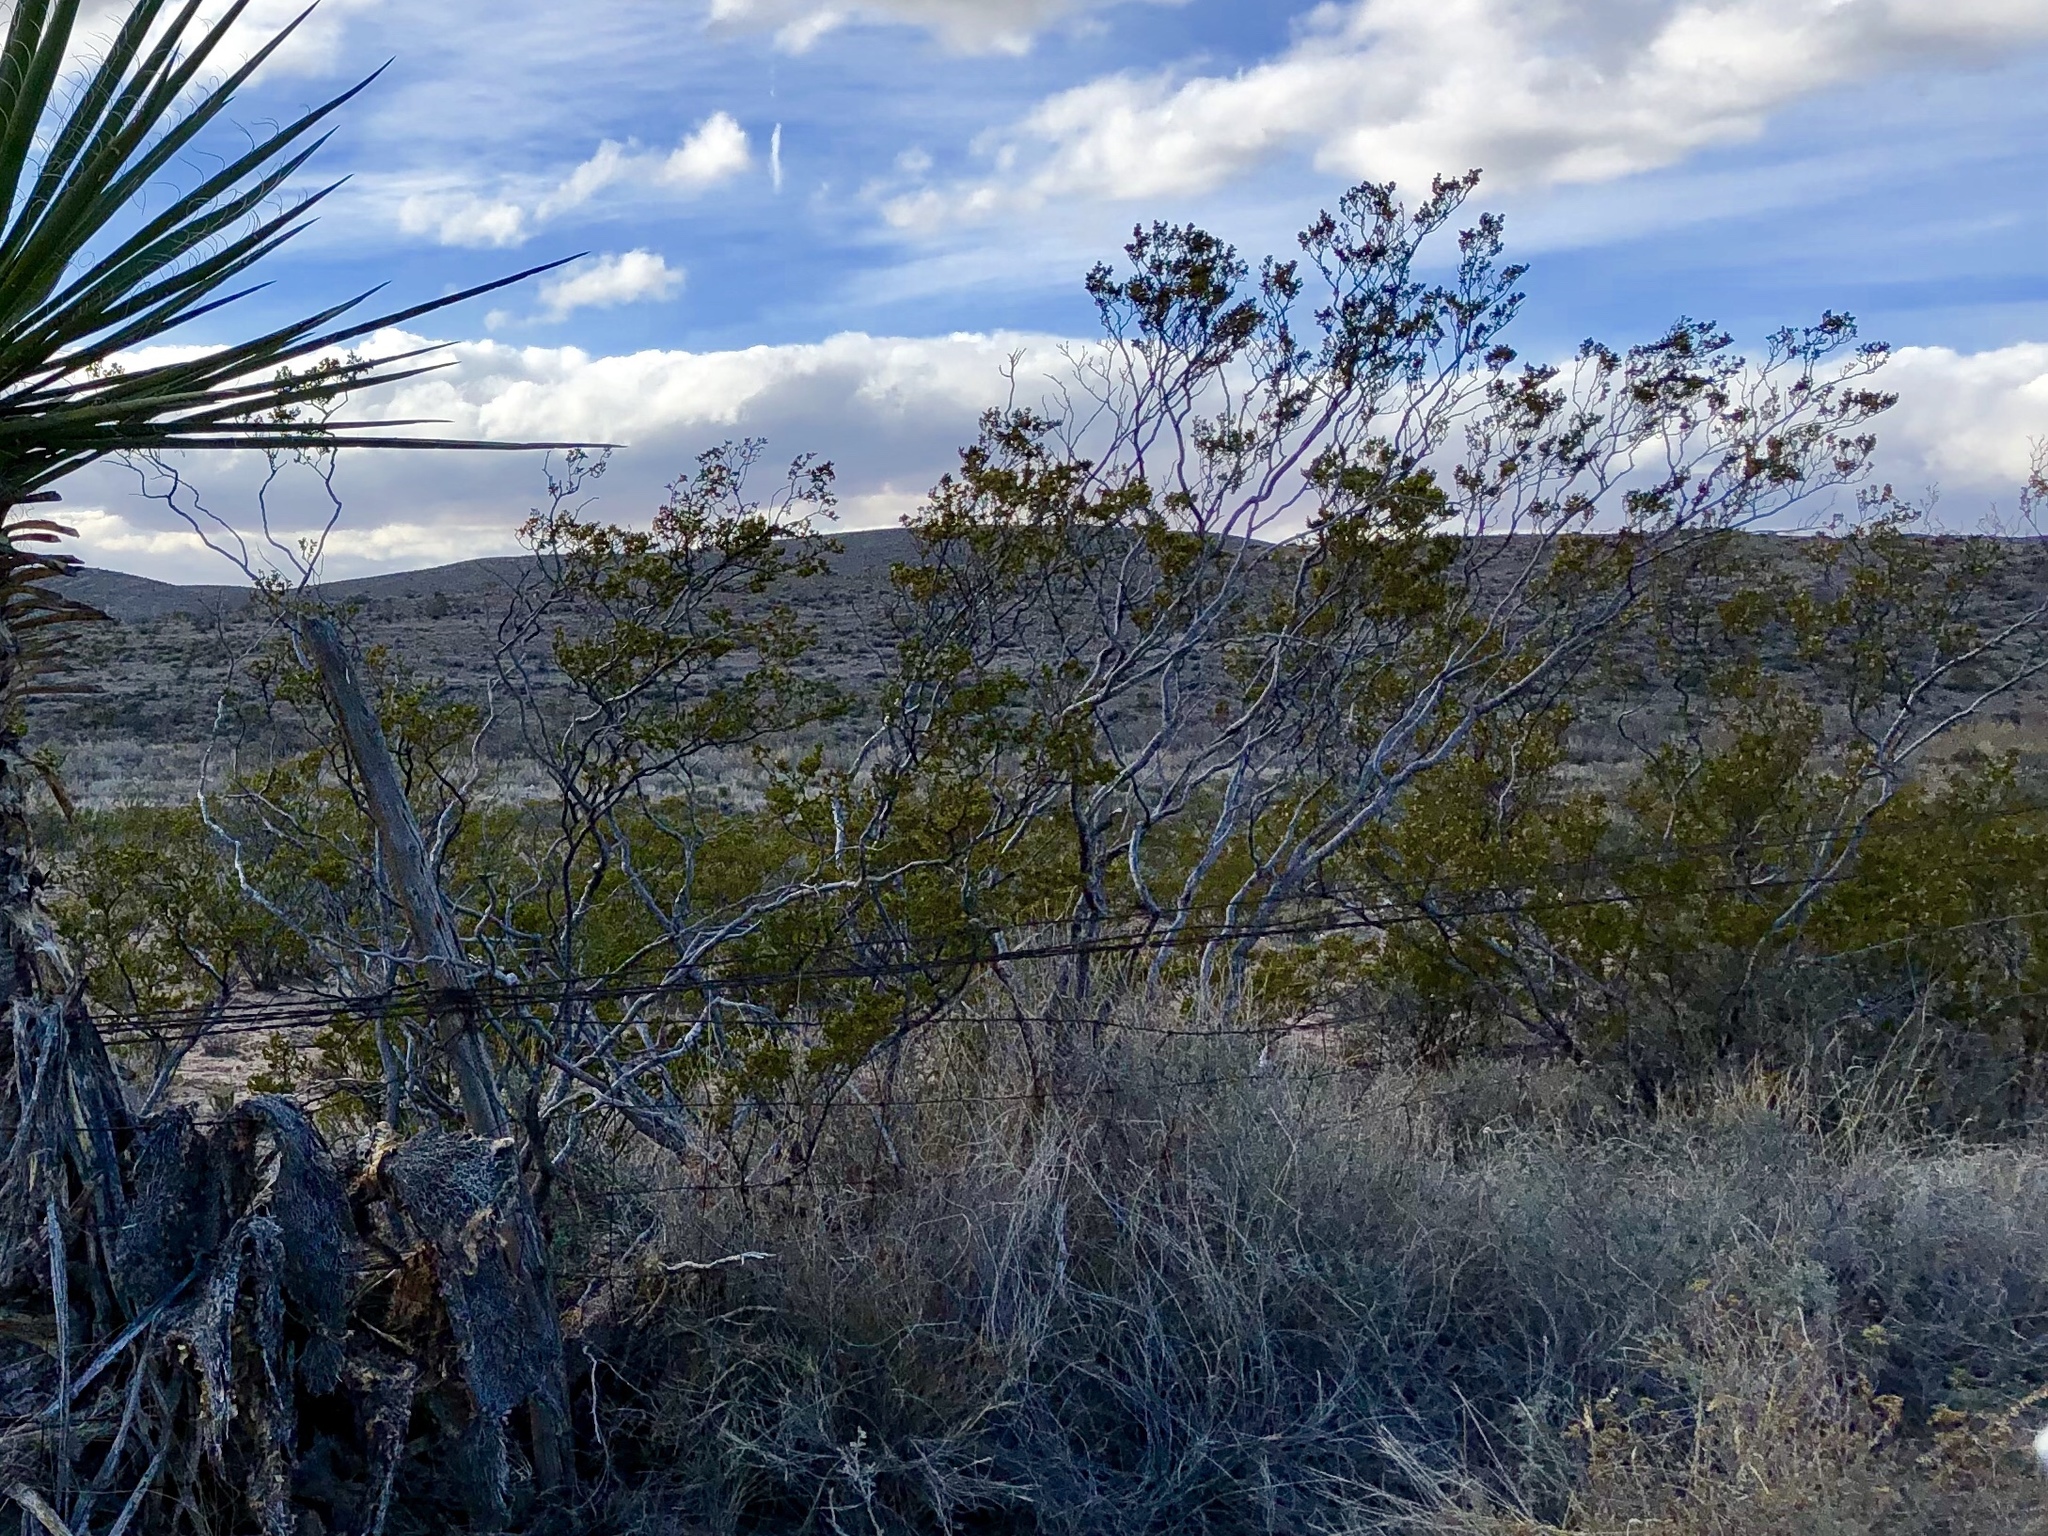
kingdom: Plantae
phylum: Tracheophyta
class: Magnoliopsida
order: Zygophyllales
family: Zygophyllaceae
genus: Larrea
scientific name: Larrea tridentata
